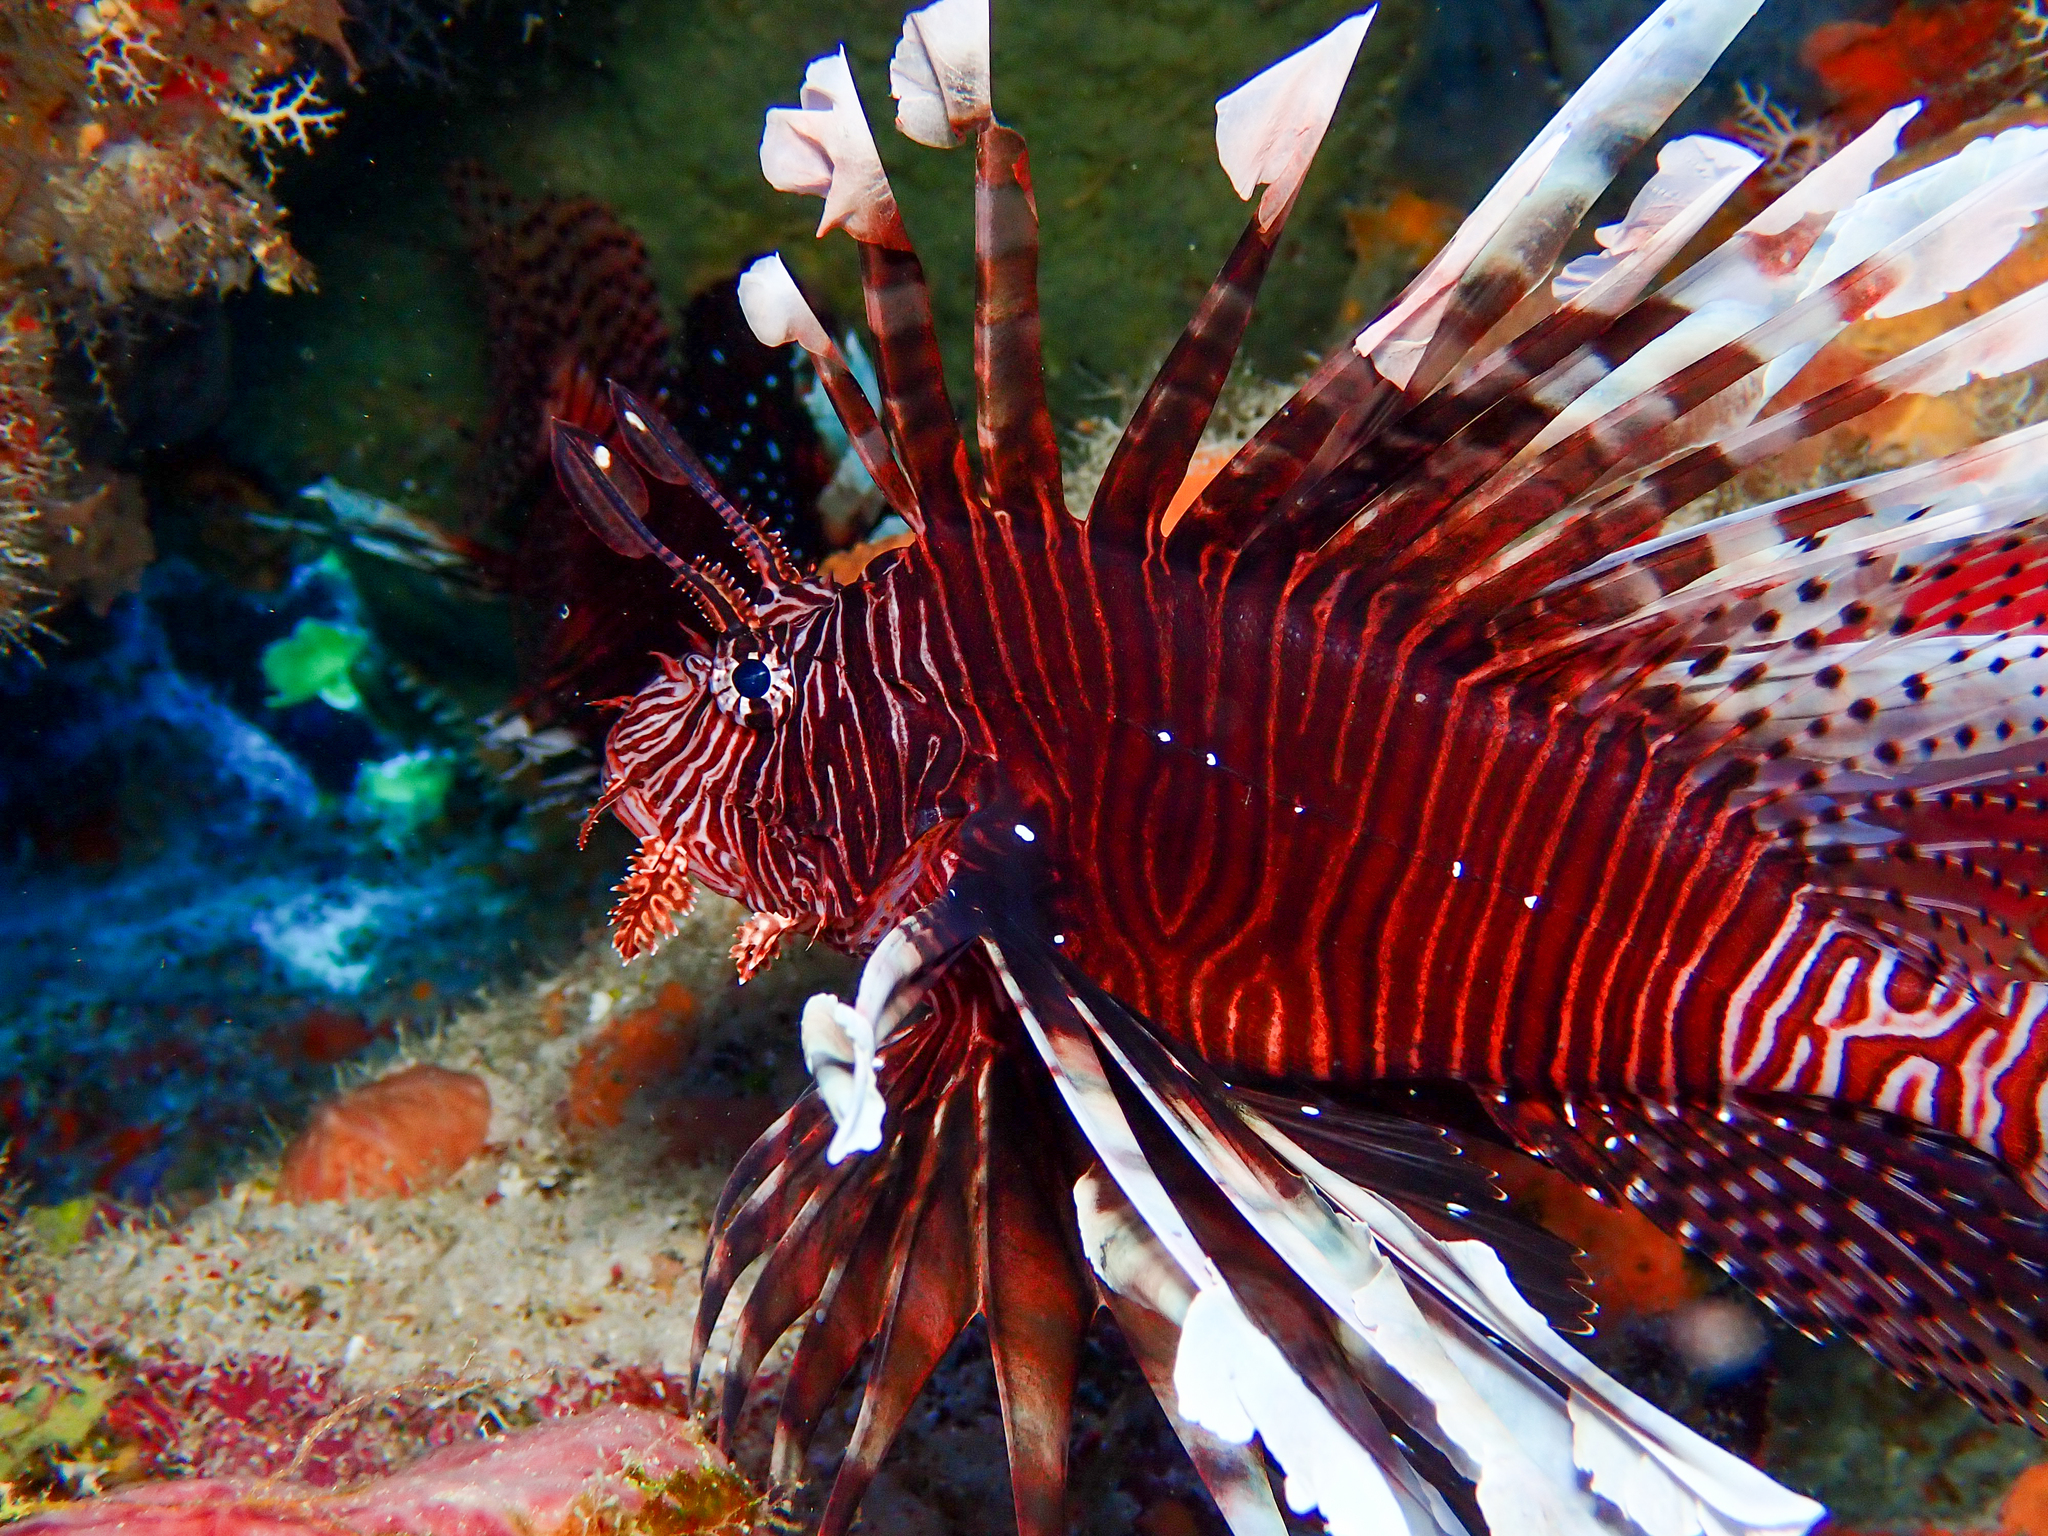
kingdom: Animalia
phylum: Chordata
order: Scorpaeniformes
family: Scorpaenidae
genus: Pterois
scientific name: Pterois volitans
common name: Lionfish
